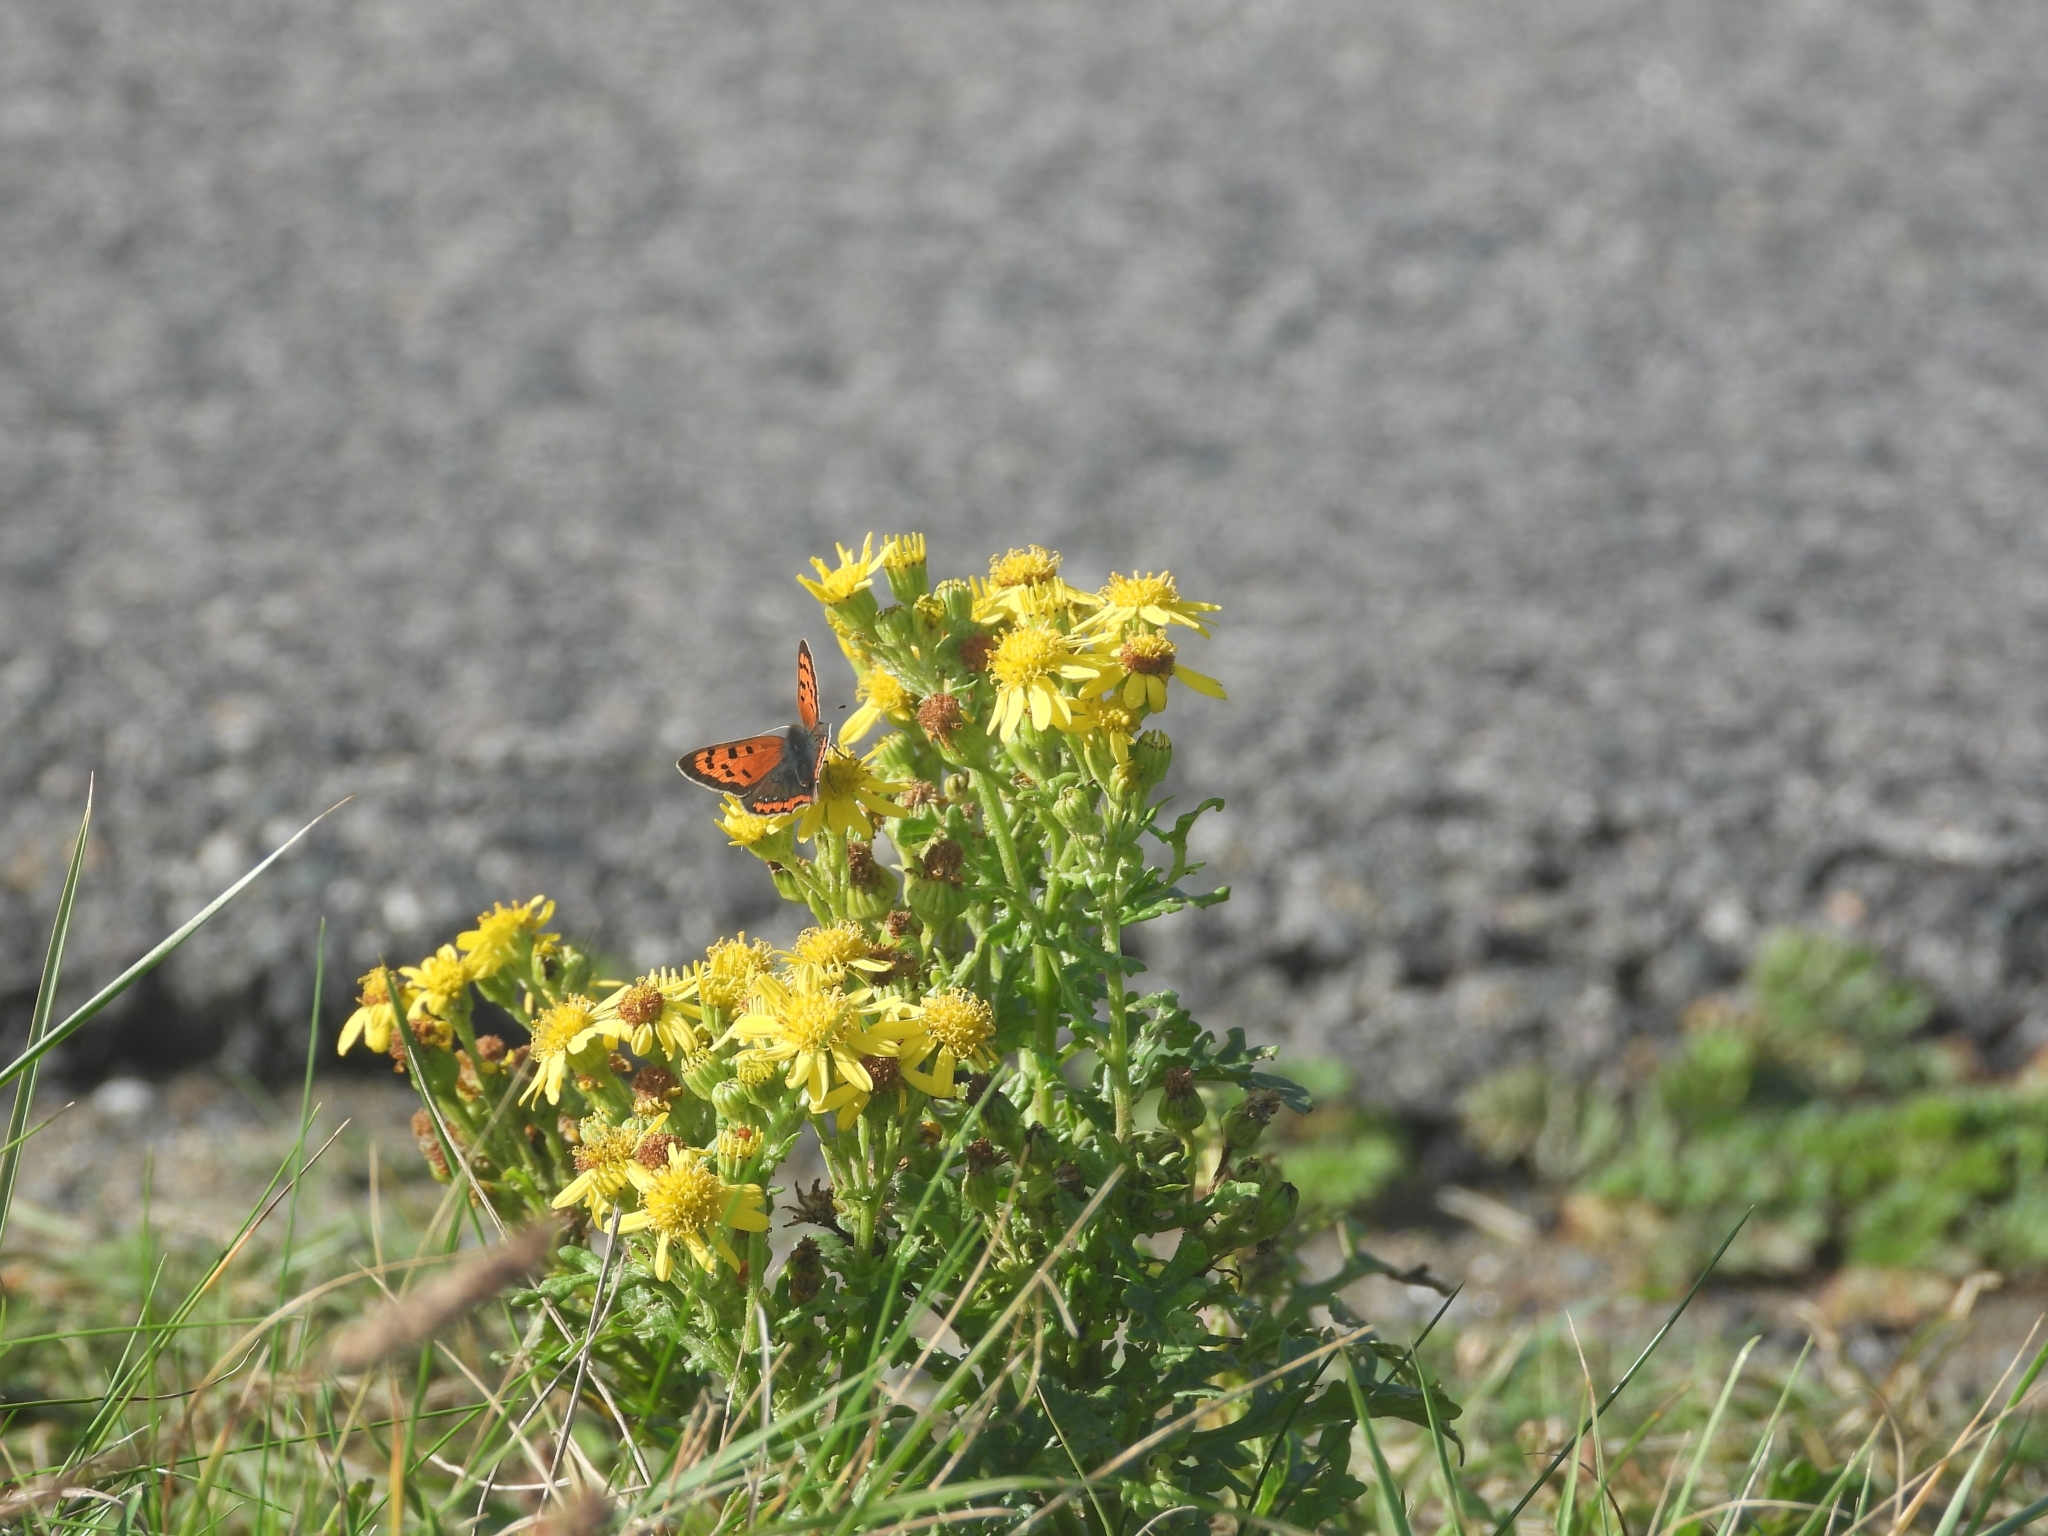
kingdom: Animalia
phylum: Arthropoda
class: Insecta
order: Lepidoptera
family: Lycaenidae
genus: Lycaena
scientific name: Lycaena phlaeas
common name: Small copper
